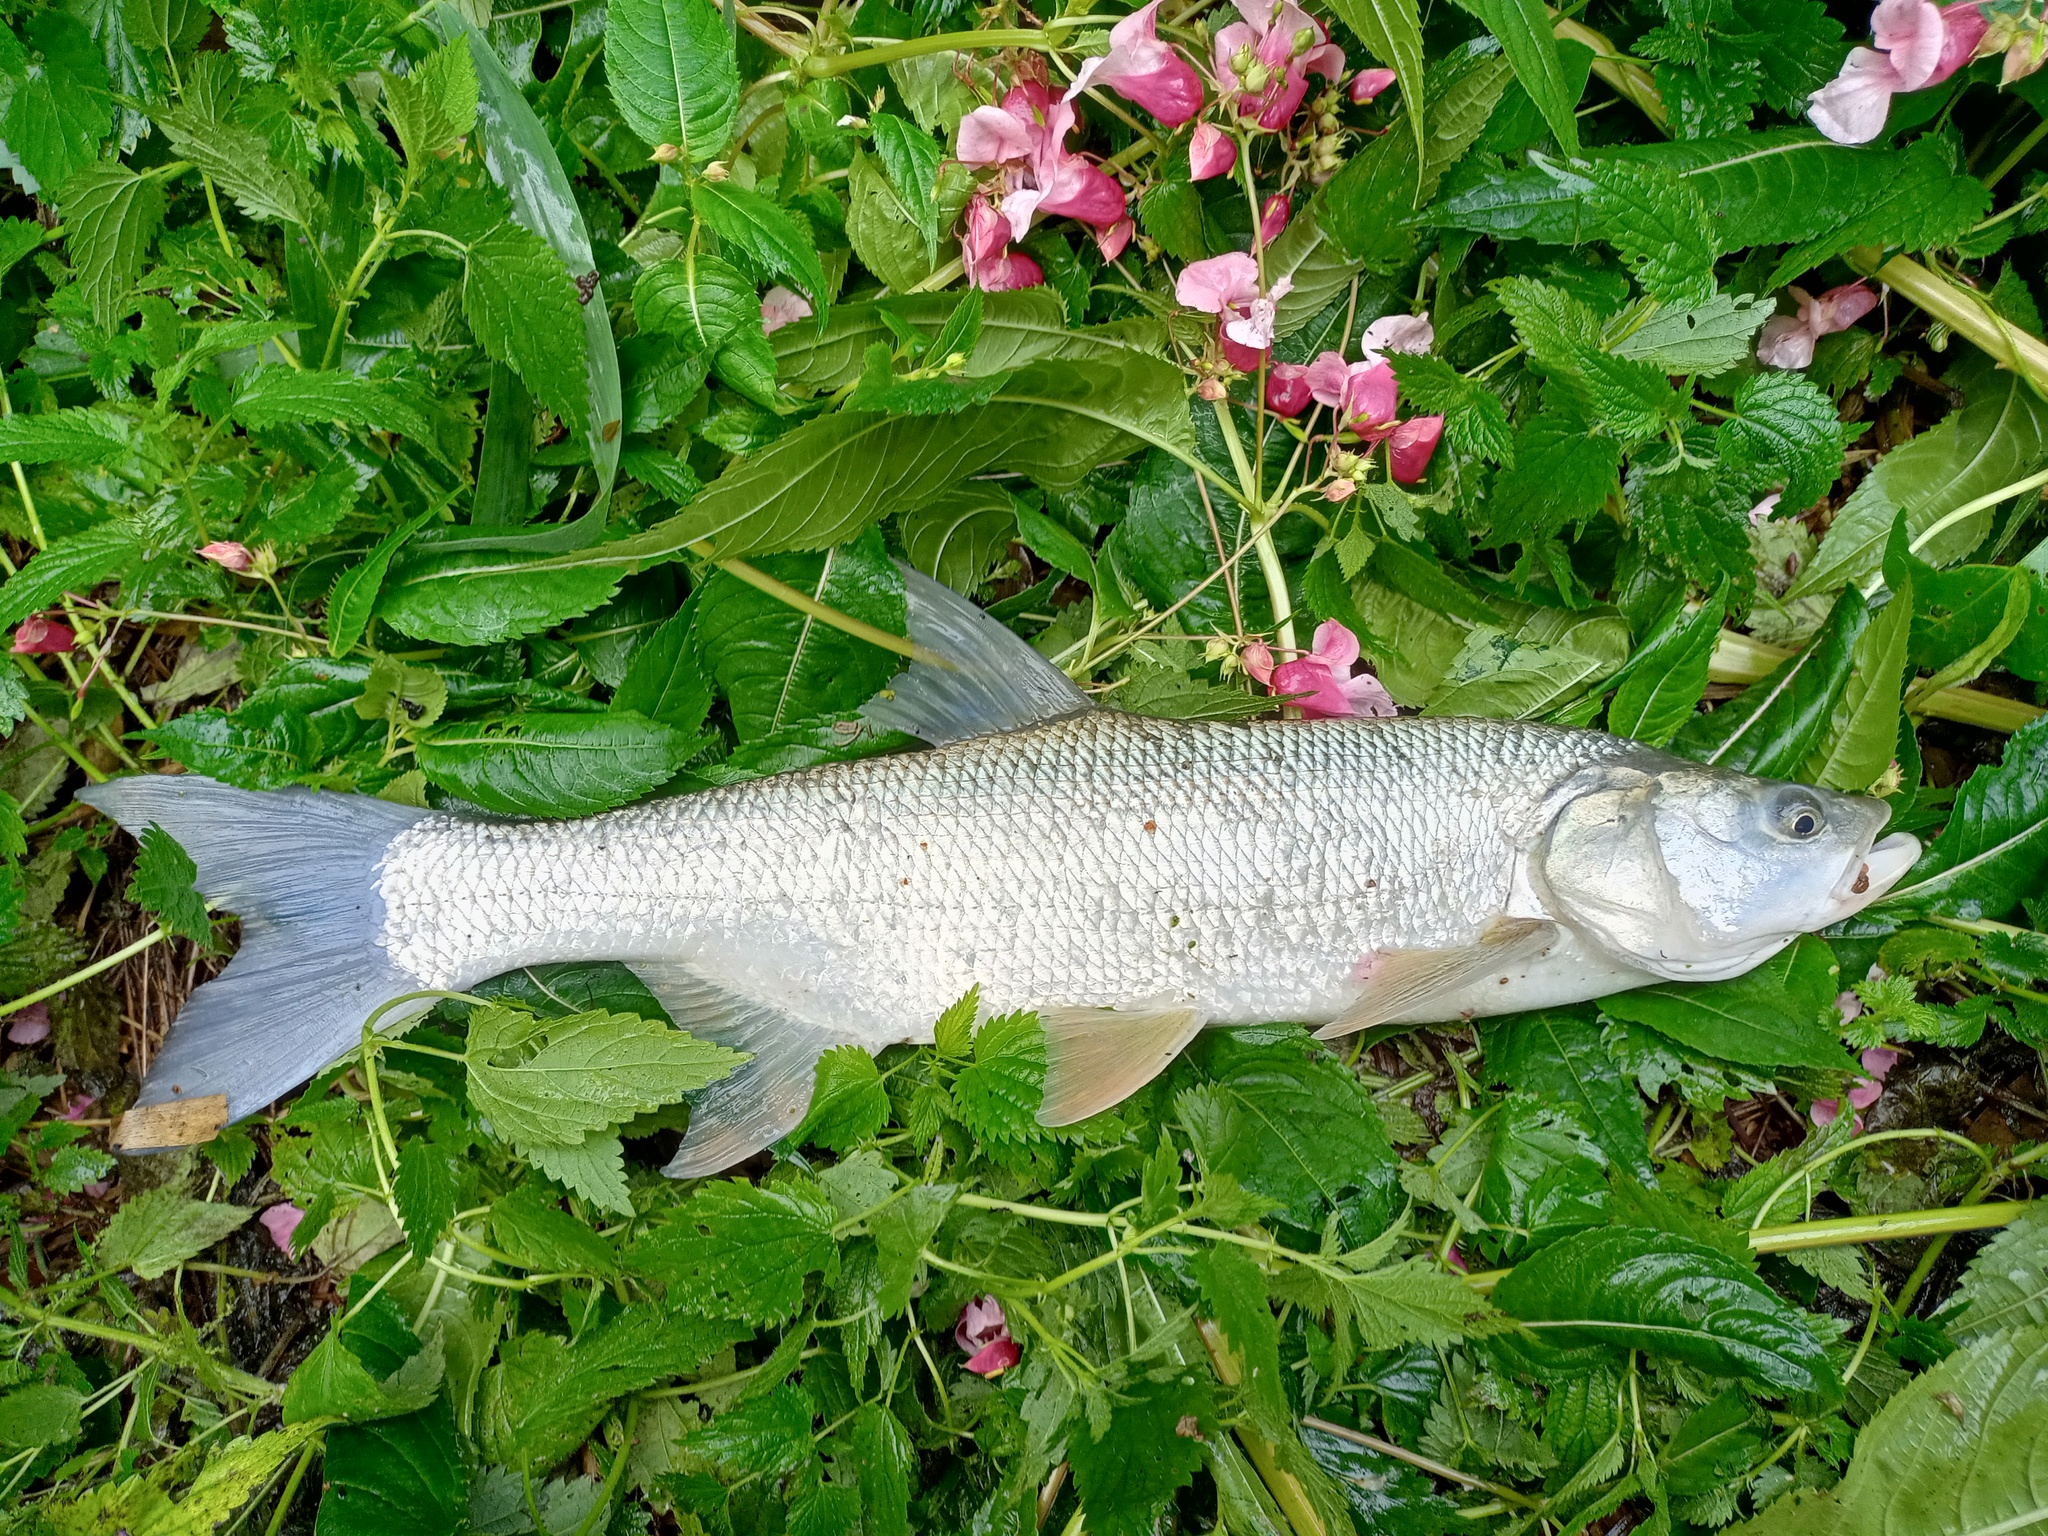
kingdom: Animalia
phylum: Chordata
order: Cypriniformes
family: Cyprinidae
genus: Leuciscus
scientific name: Leuciscus aspius
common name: Asp
